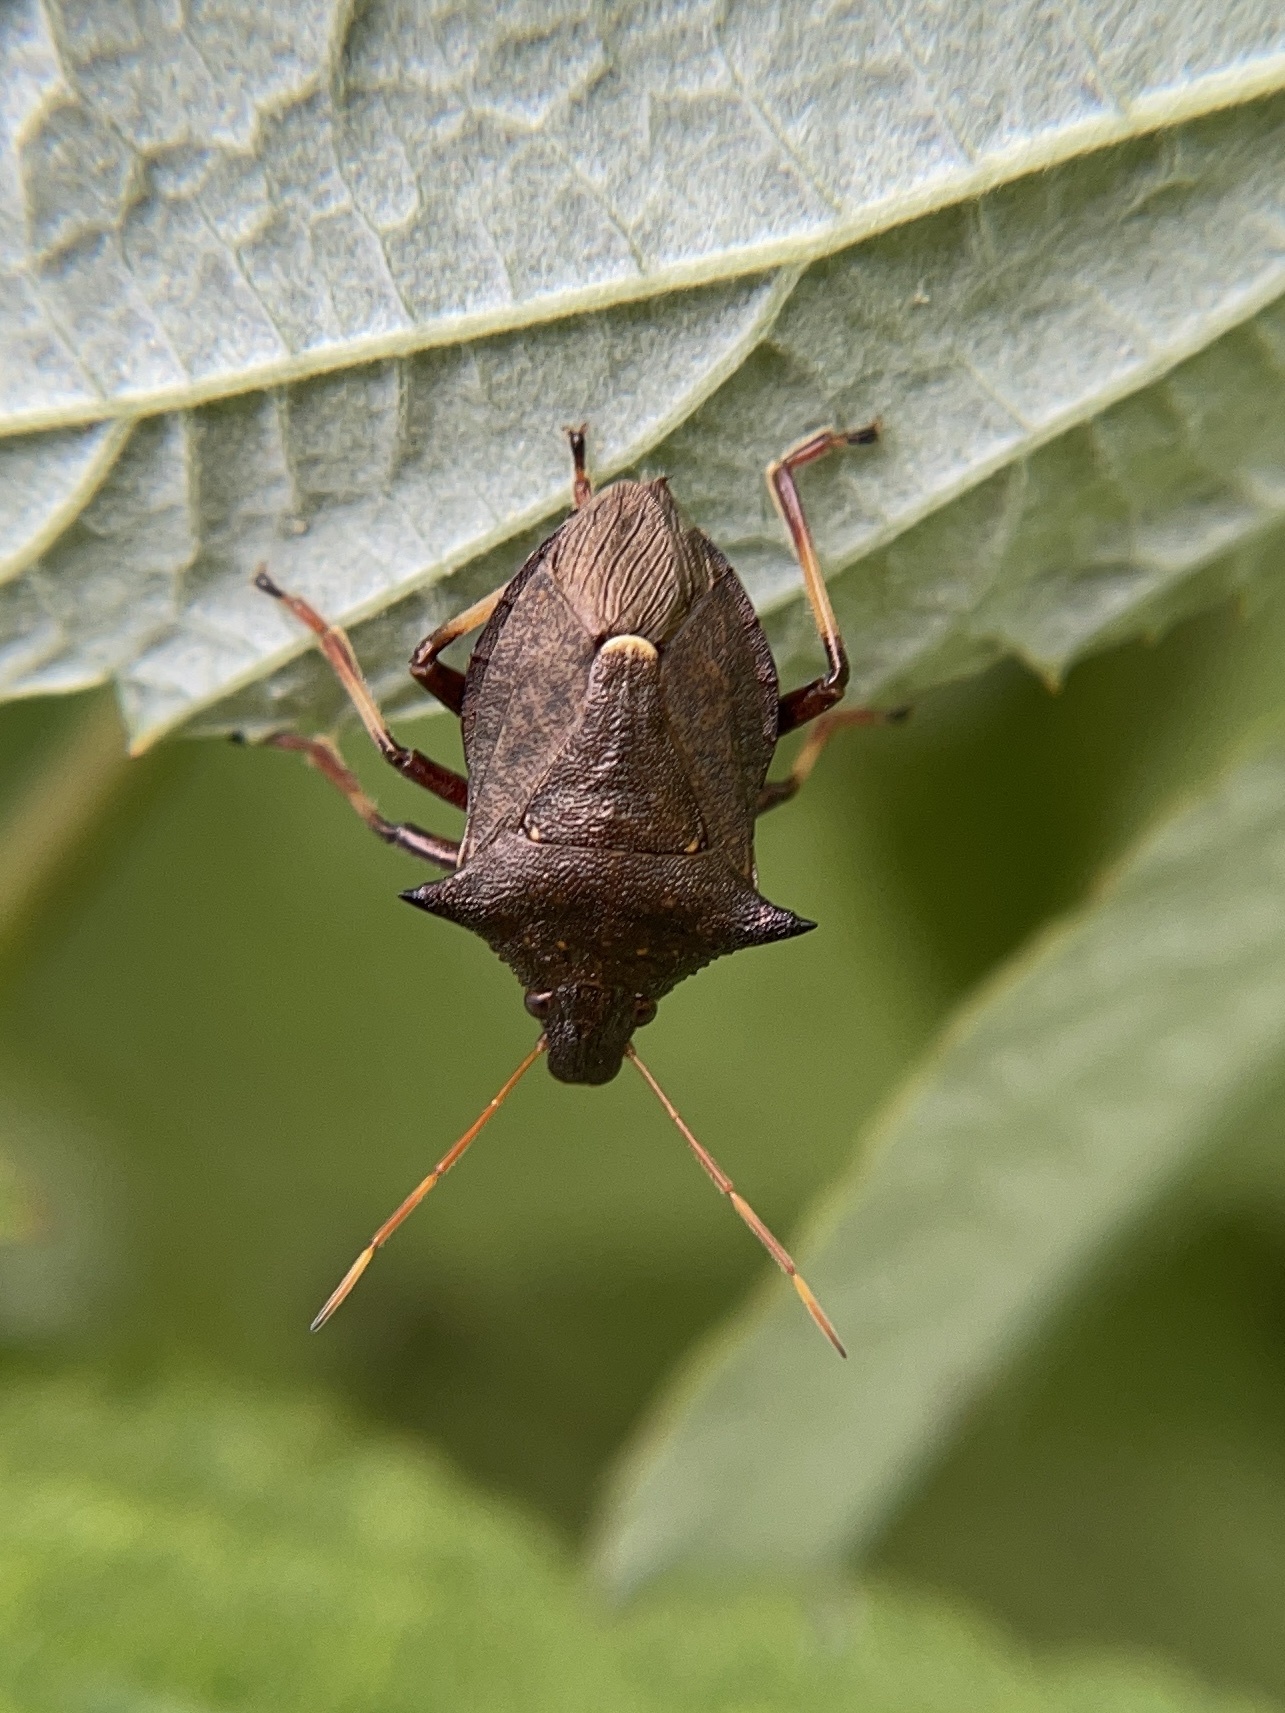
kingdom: Animalia
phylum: Arthropoda
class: Insecta
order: Hemiptera
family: Pentatomidae
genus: Picromerus
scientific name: Picromerus bidens
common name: Spiked shieldbug
